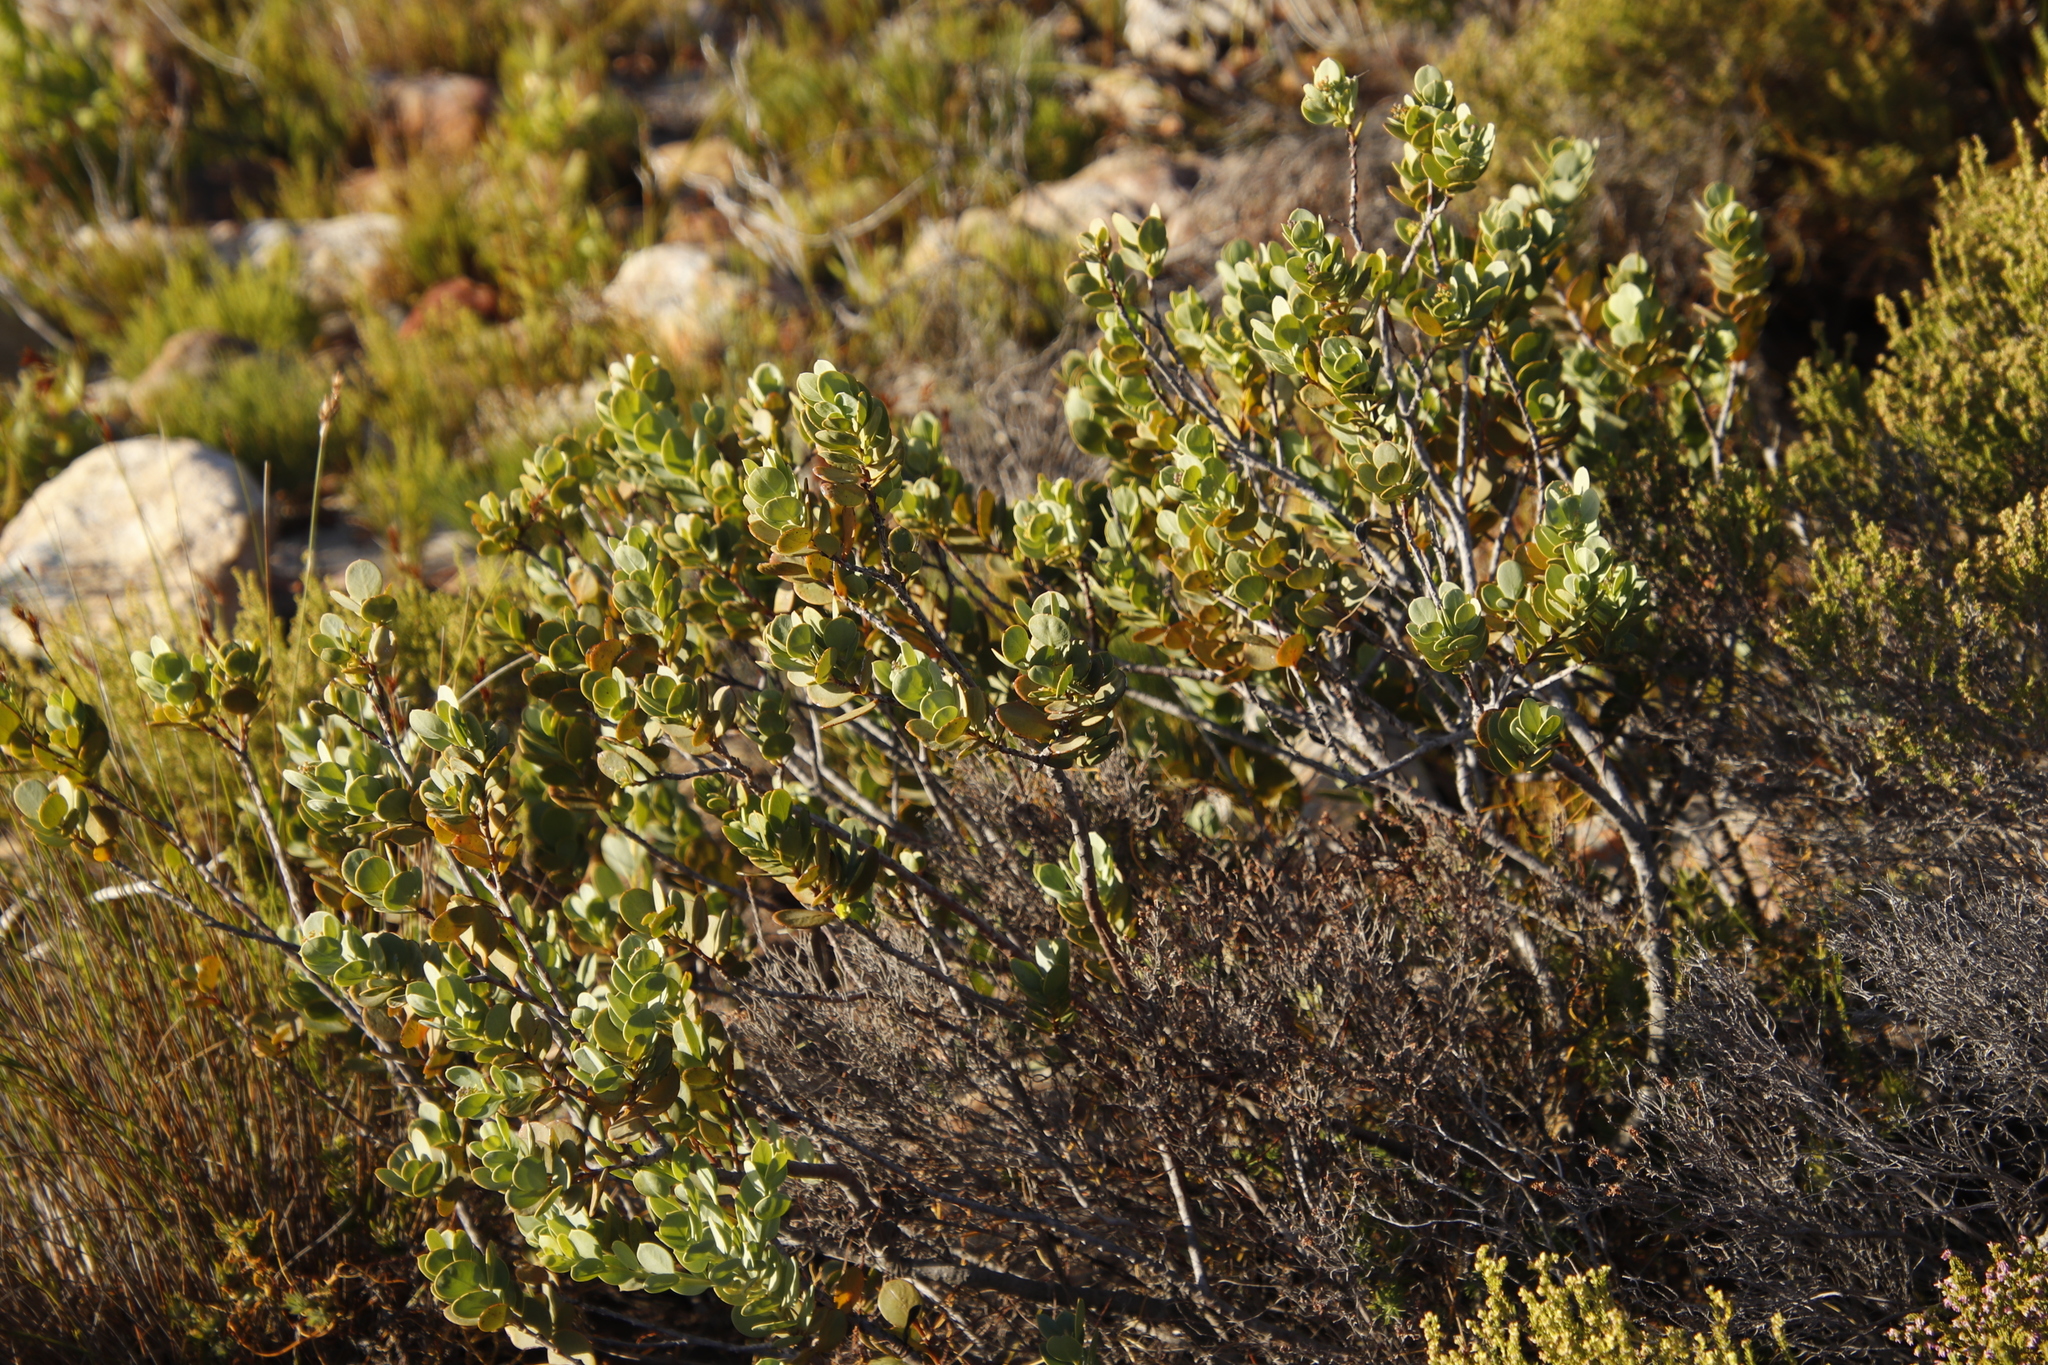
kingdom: Plantae
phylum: Tracheophyta
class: Magnoliopsida
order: Santalales
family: Santalaceae
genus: Osyris
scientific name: Osyris compressa
